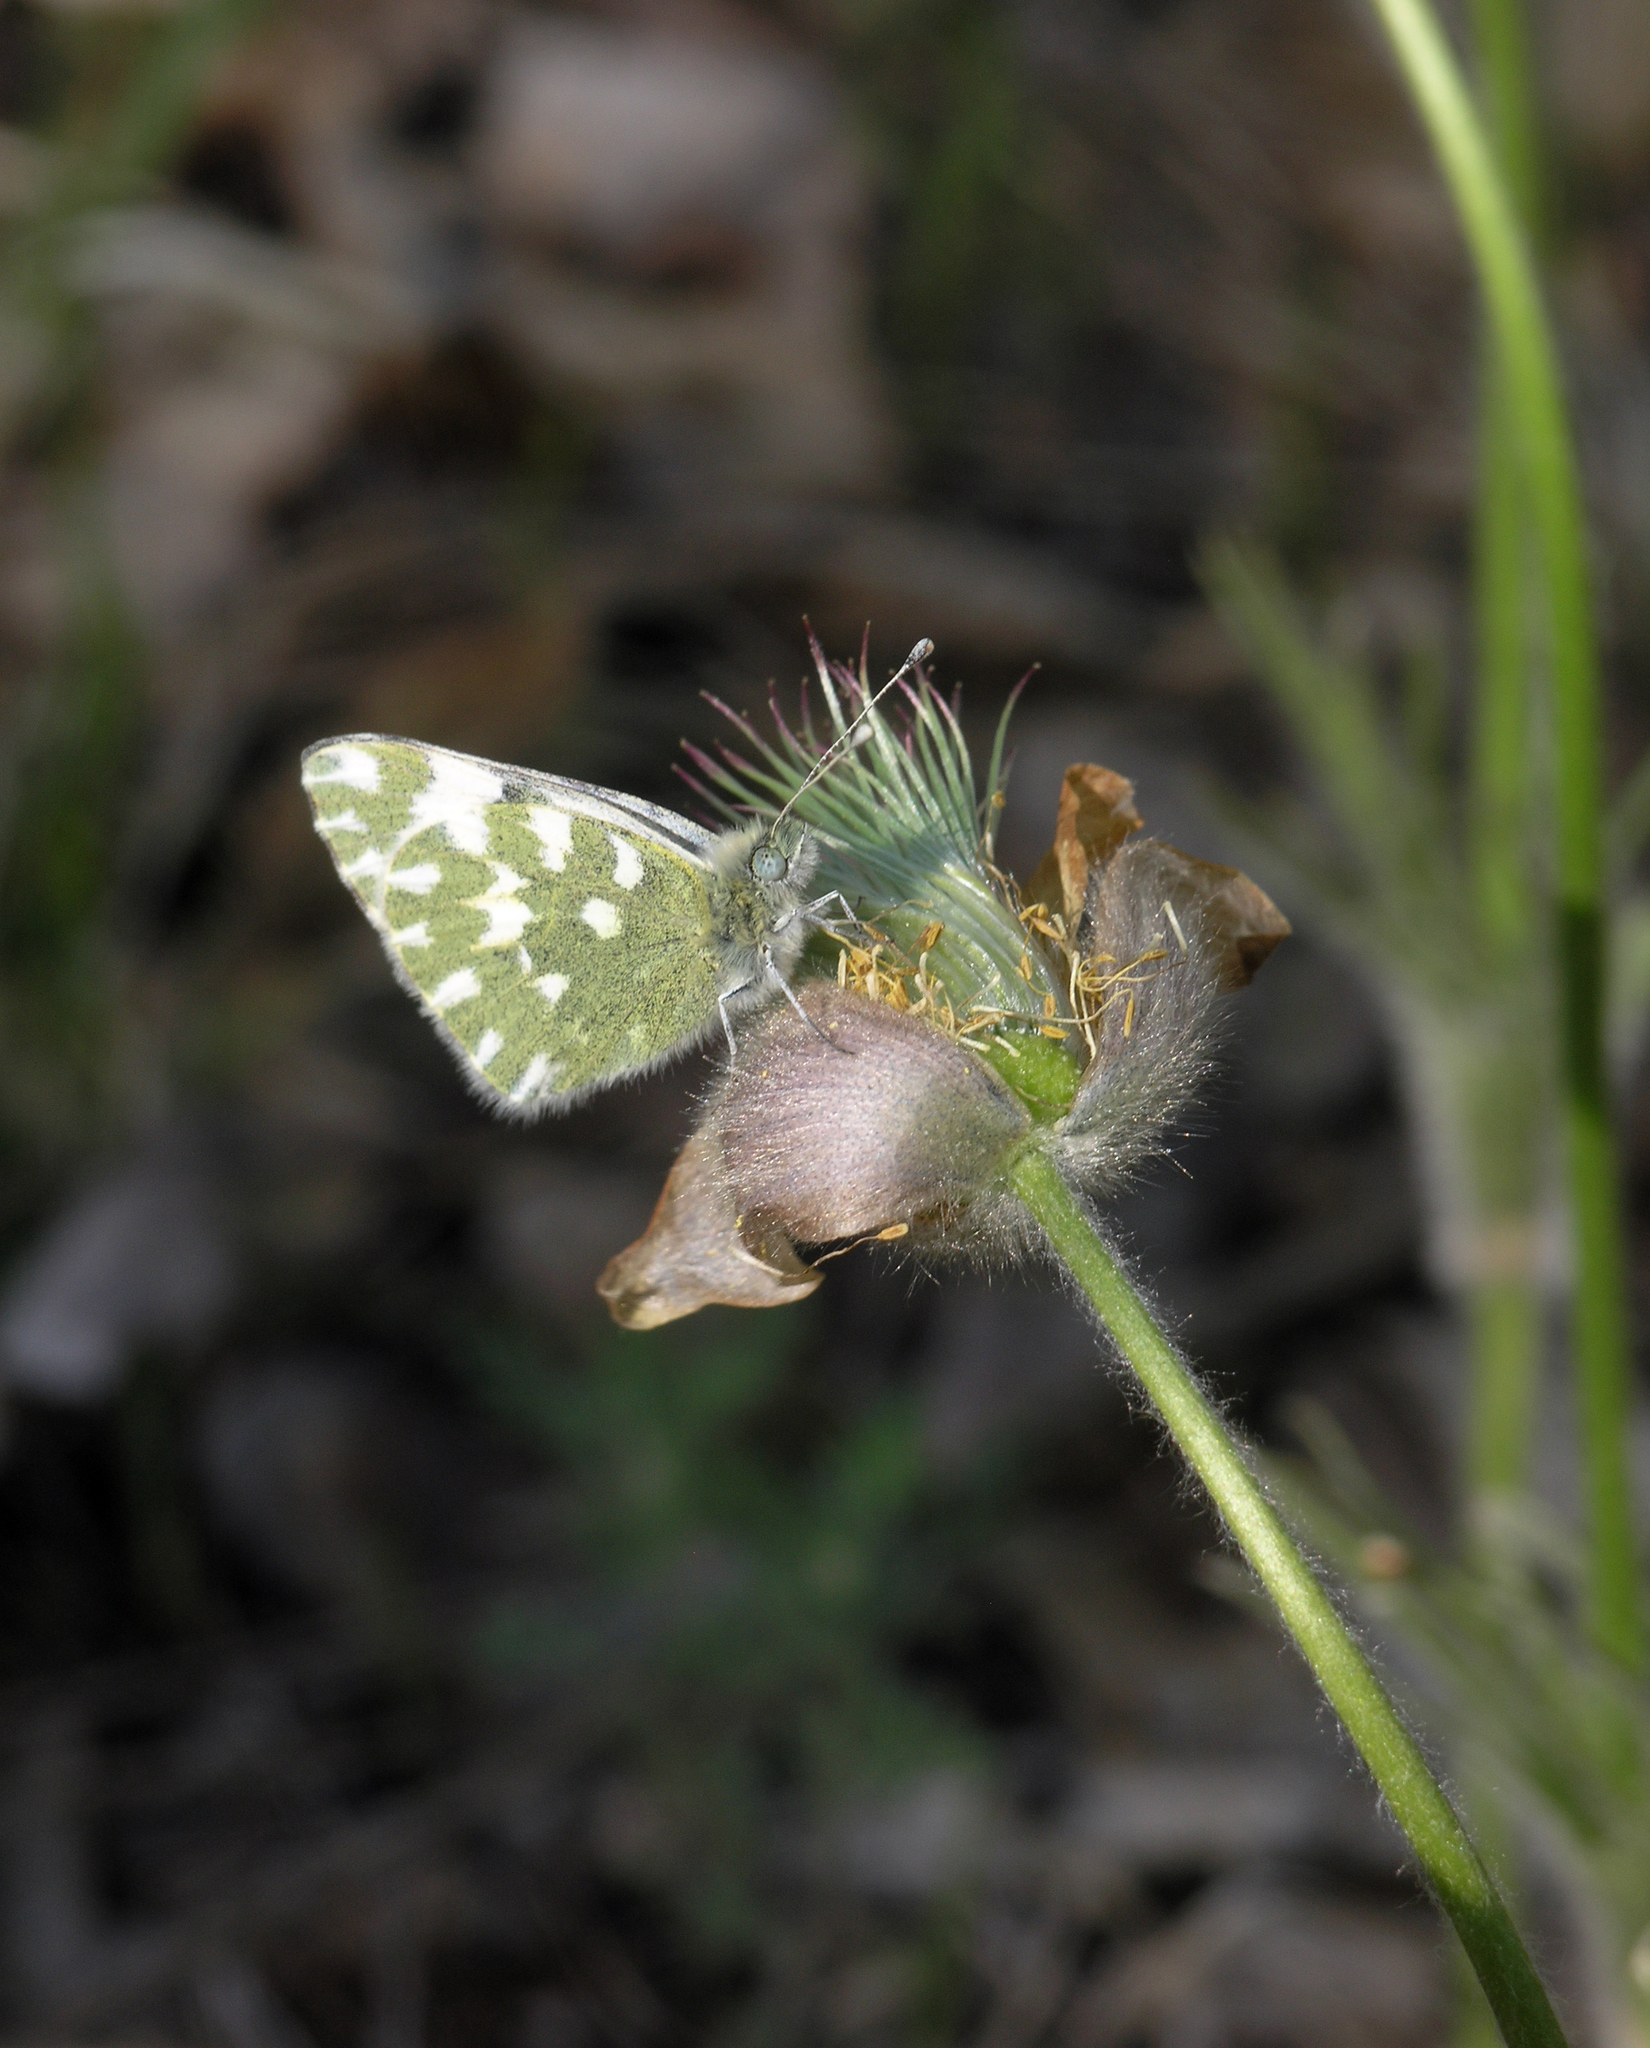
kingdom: Plantae
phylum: Tracheophyta
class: Magnoliopsida
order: Ranunculales
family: Ranunculaceae
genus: Pulsatilla
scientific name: Pulsatilla patens
